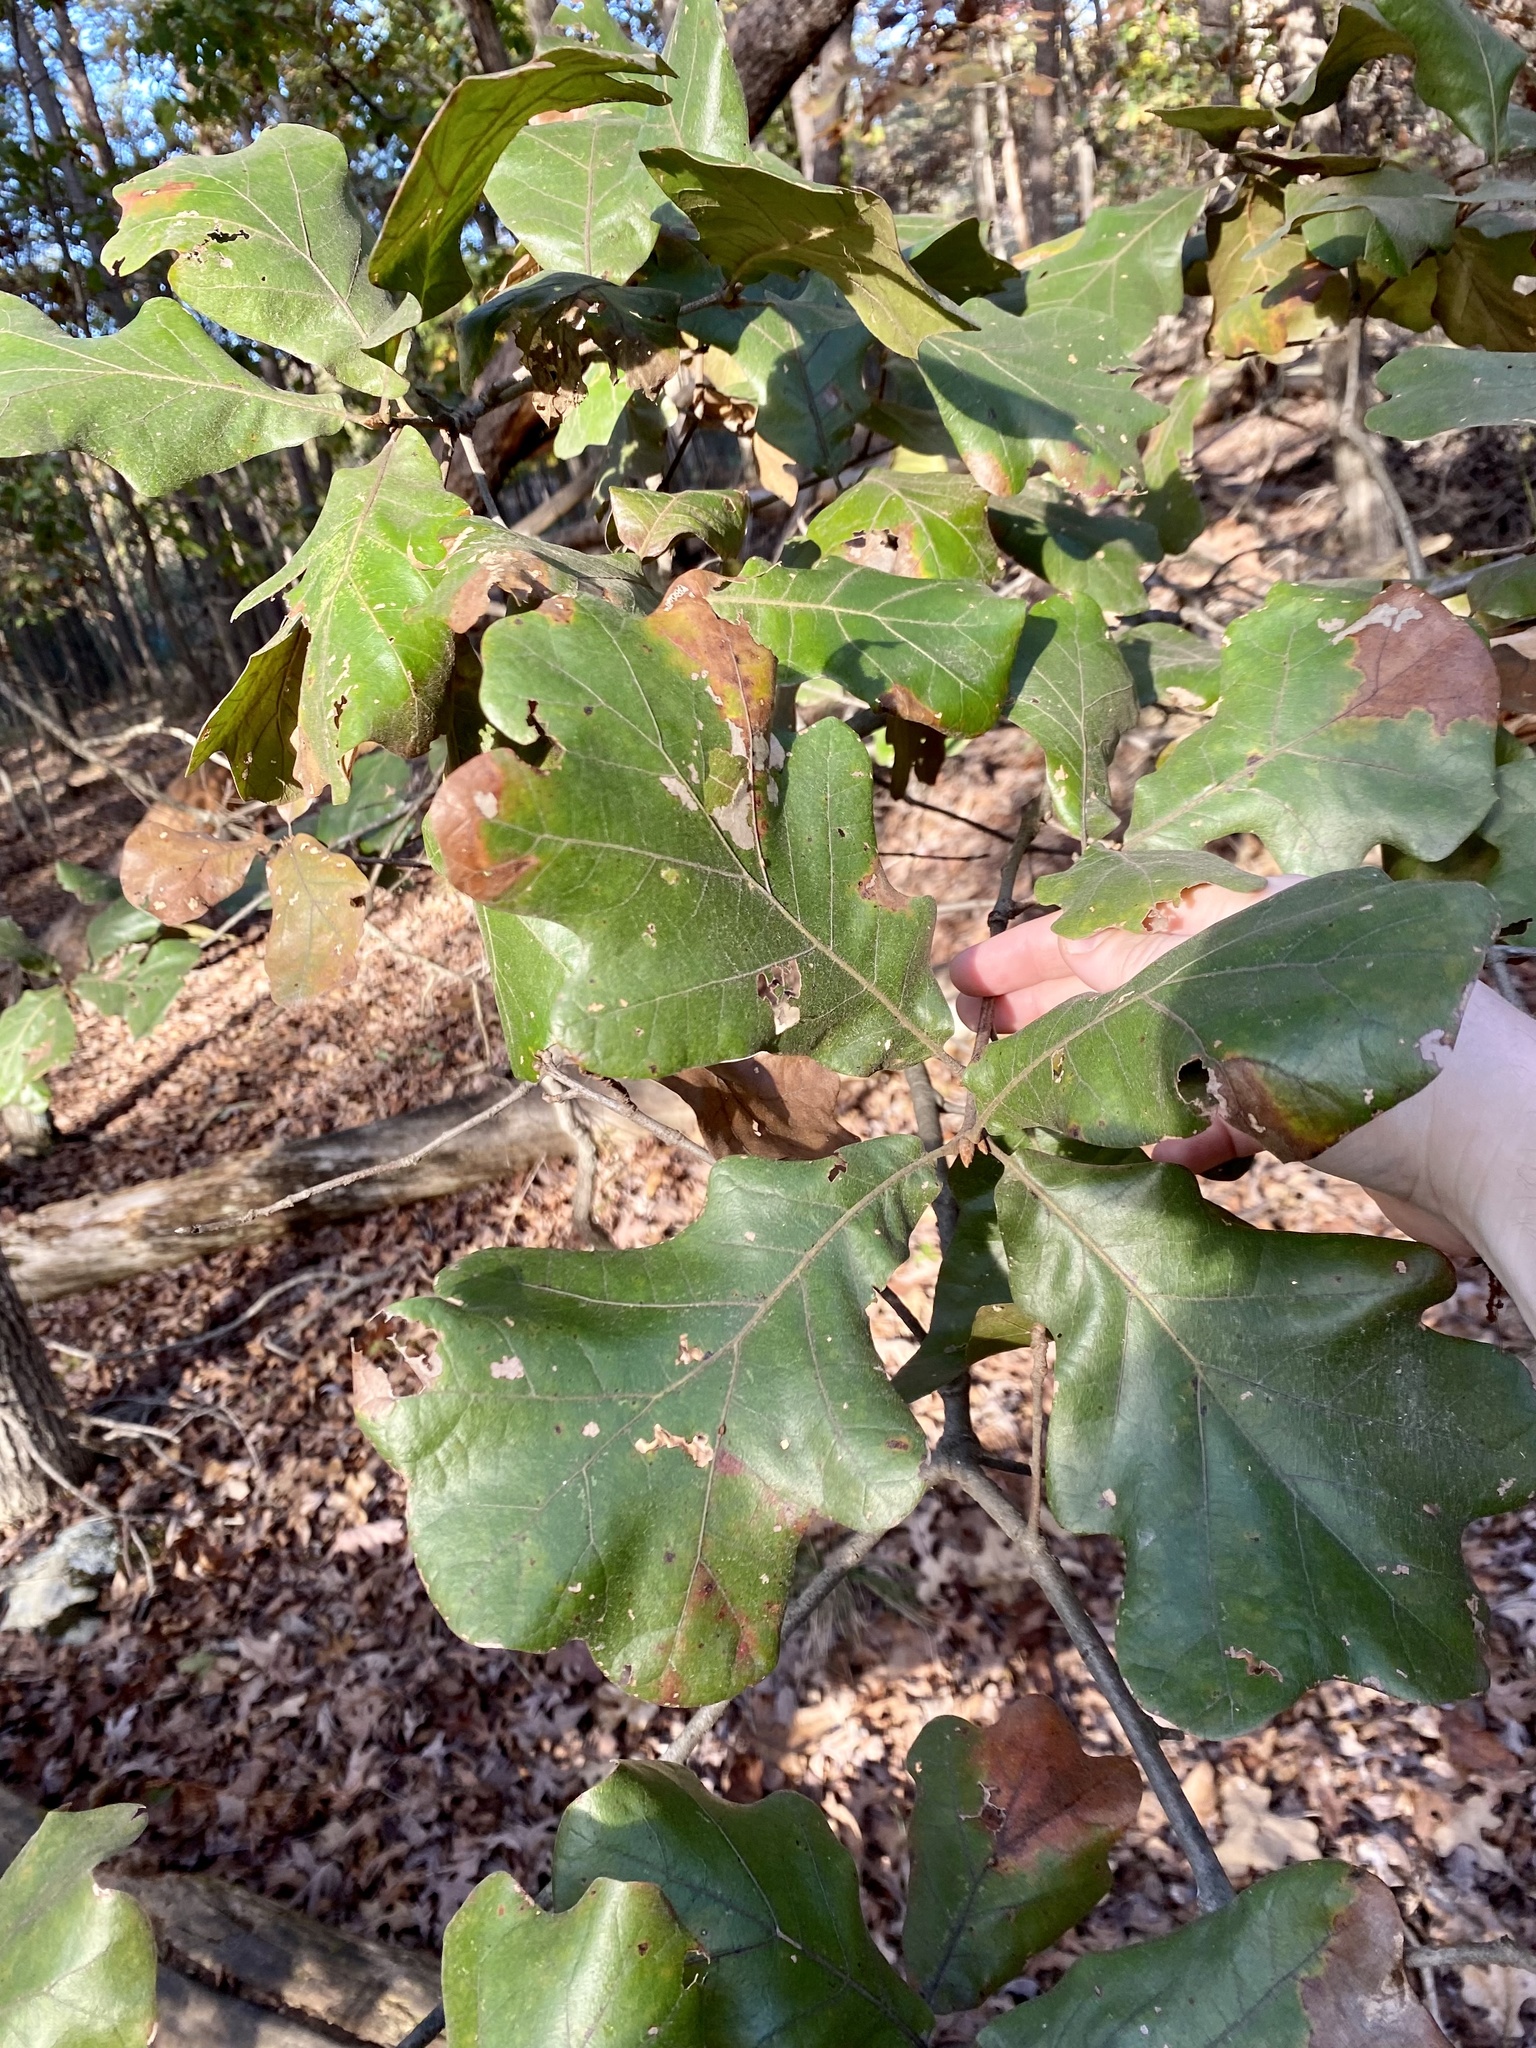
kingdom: Plantae
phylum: Tracheophyta
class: Magnoliopsida
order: Fagales
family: Fagaceae
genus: Quercus
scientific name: Quercus stellata
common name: Post oak
